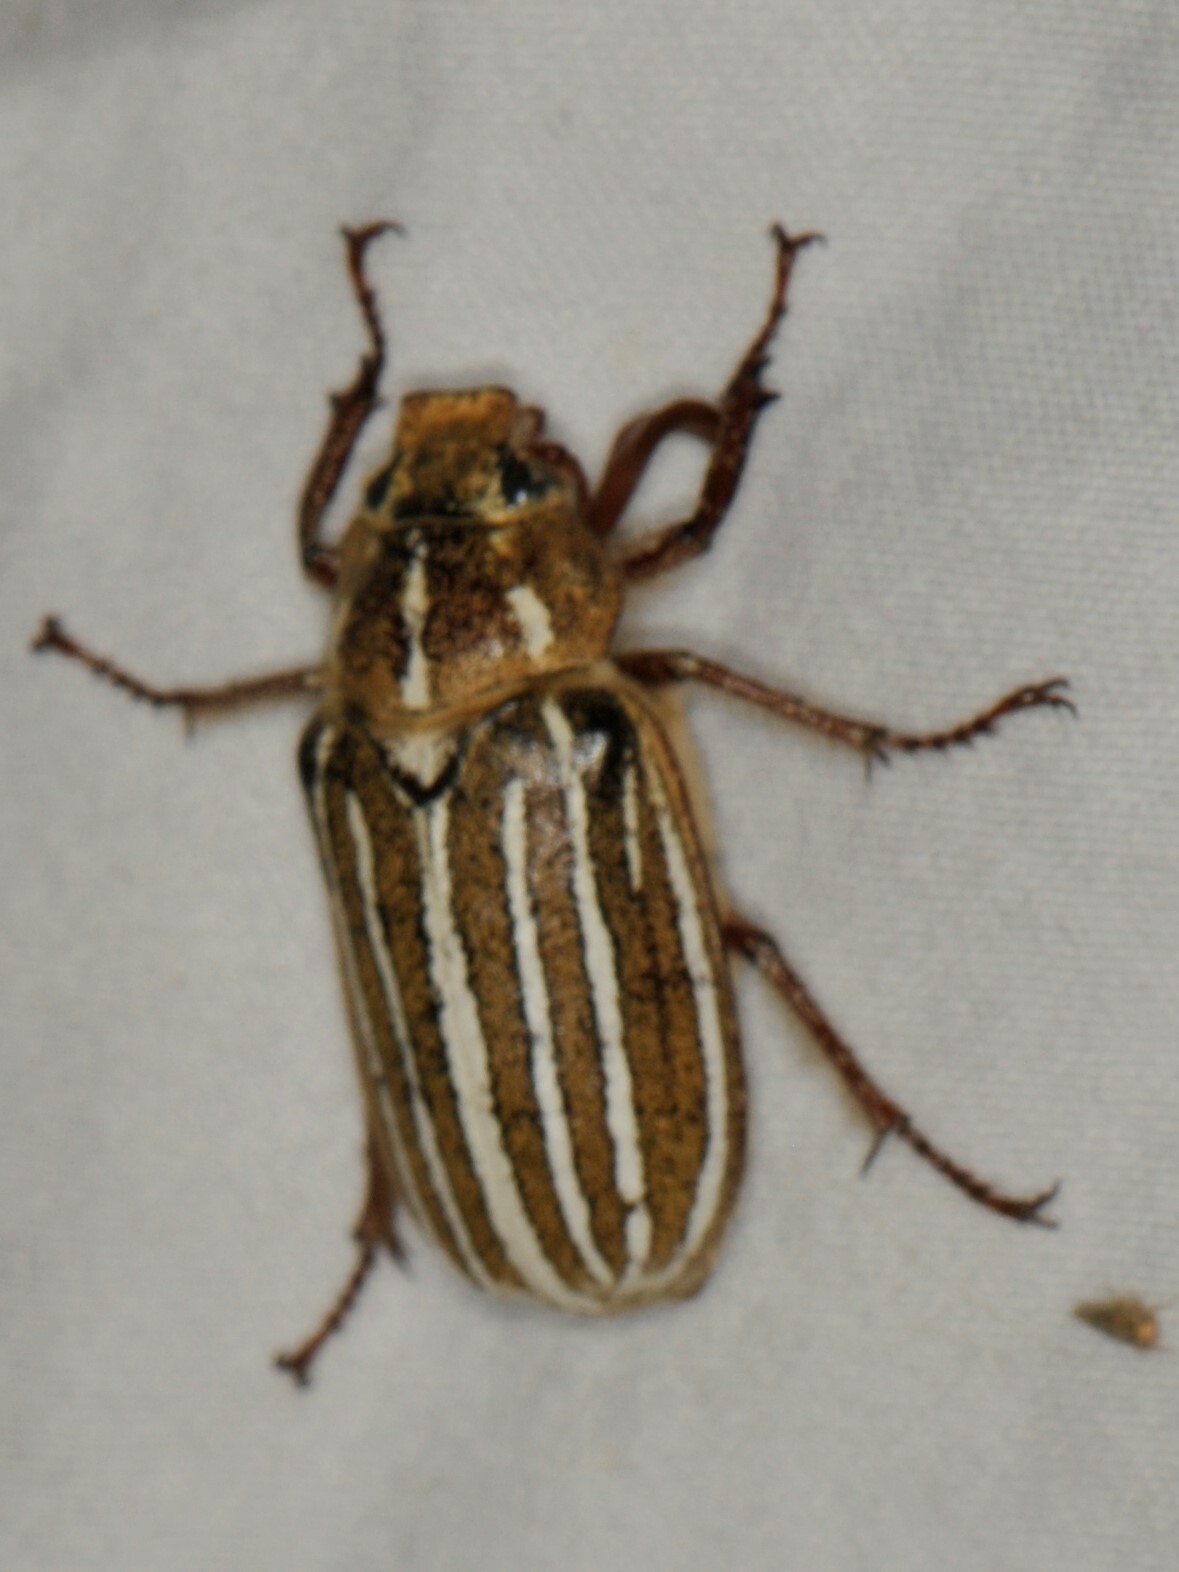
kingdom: Animalia
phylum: Arthropoda
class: Insecta
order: Coleoptera
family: Scarabaeidae
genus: Polyphylla
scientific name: Polyphylla decemlineata
